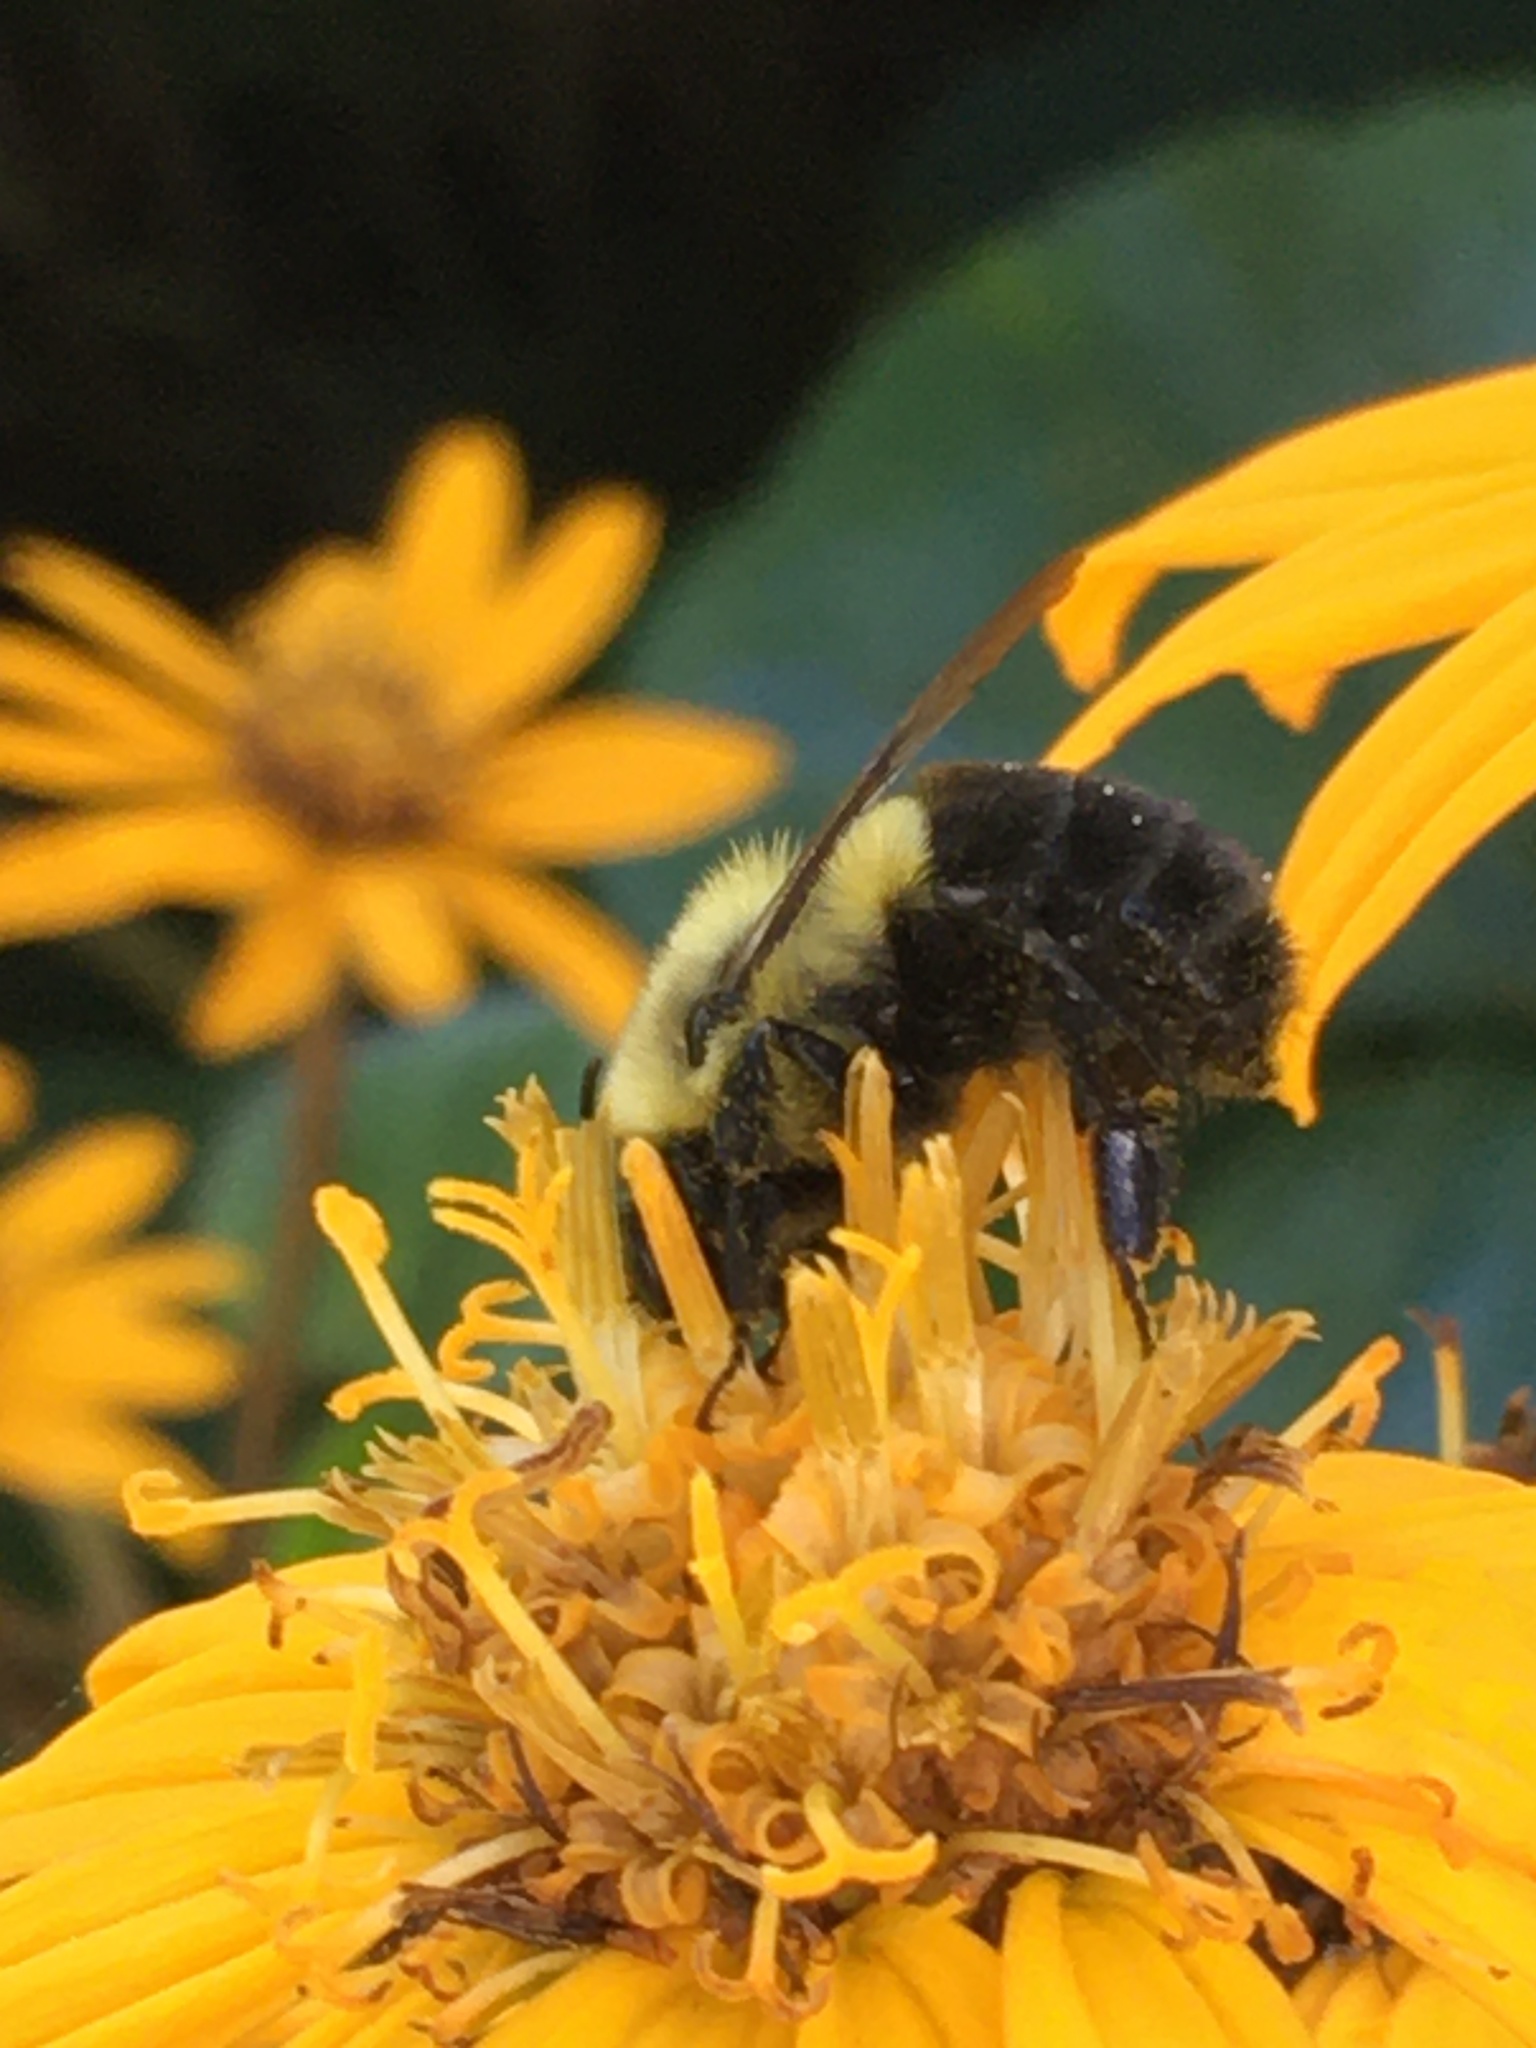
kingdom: Animalia
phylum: Arthropoda
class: Insecta
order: Hymenoptera
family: Apidae
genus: Bombus
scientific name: Bombus impatiens
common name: Common eastern bumble bee
